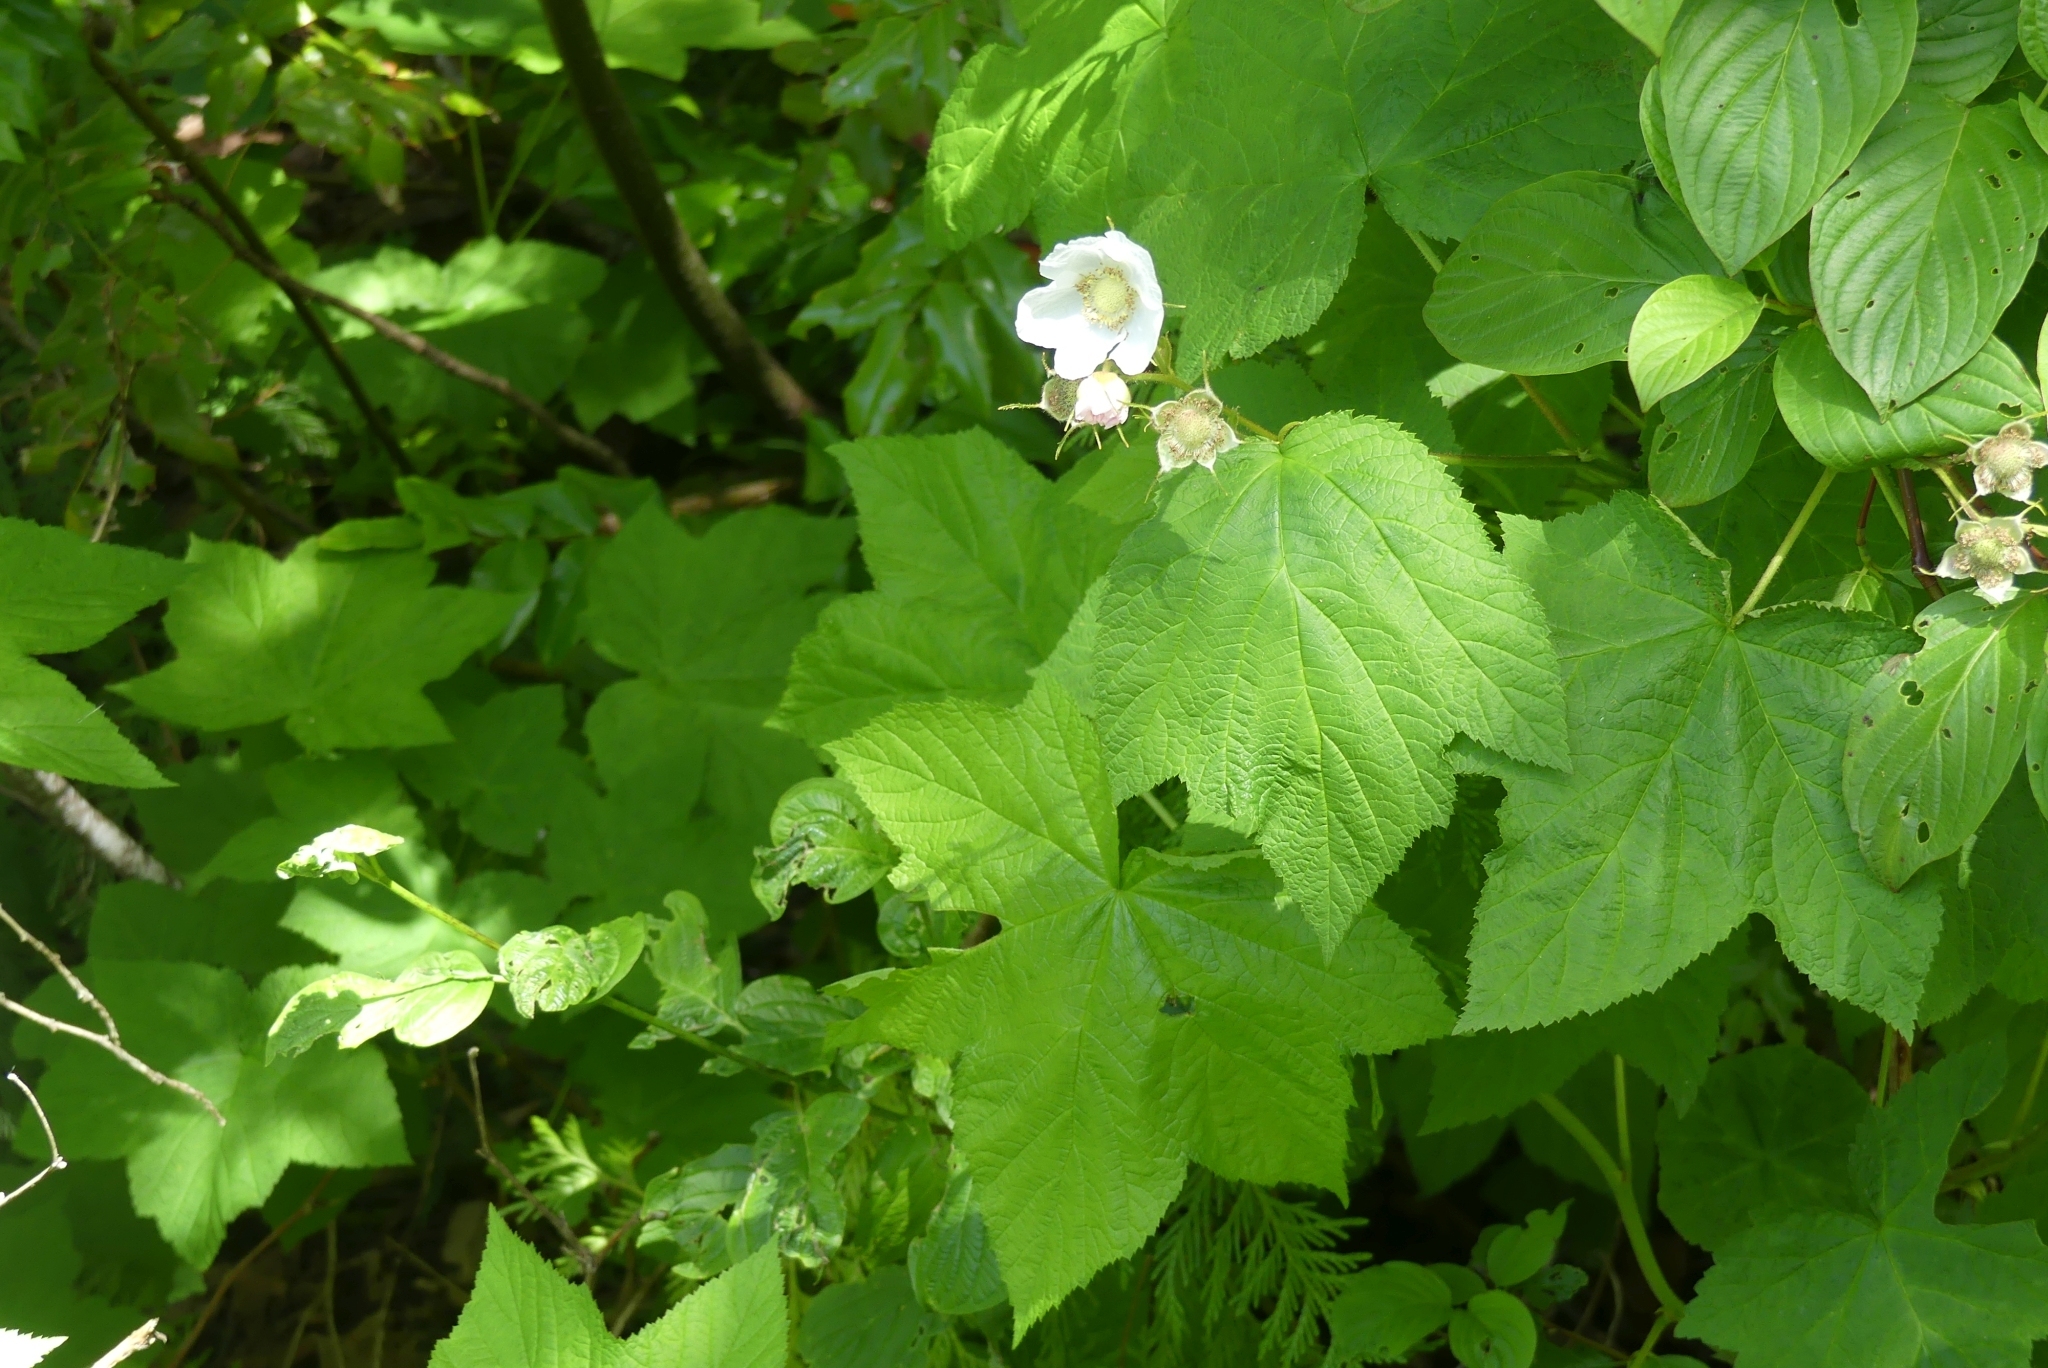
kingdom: Plantae
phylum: Tracheophyta
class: Magnoliopsida
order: Rosales
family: Rosaceae
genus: Rubus
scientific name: Rubus parviflorus
